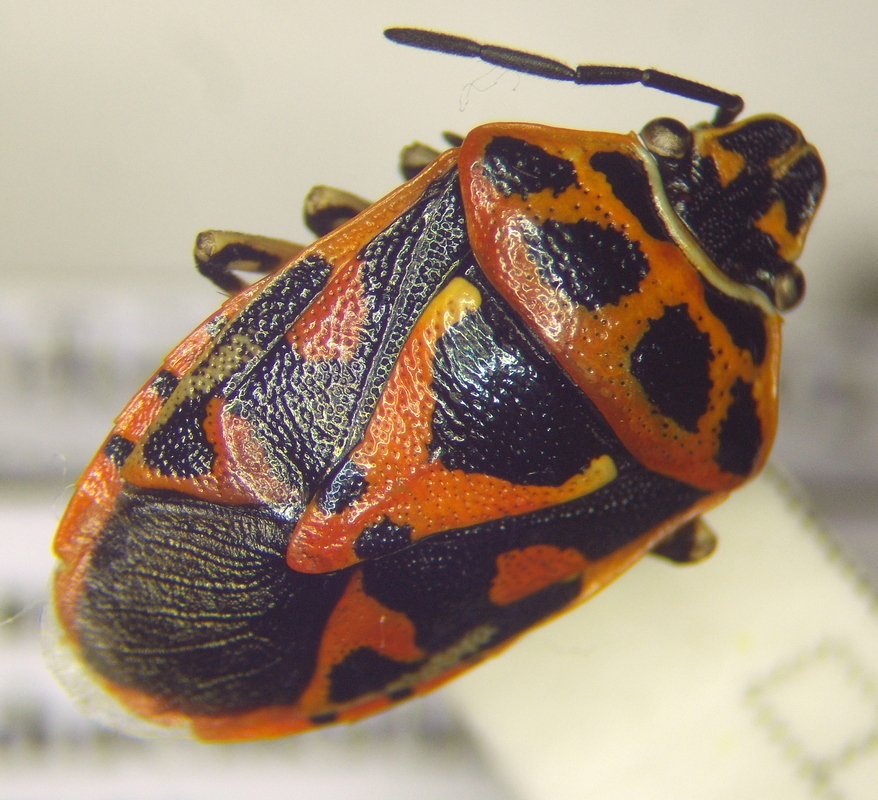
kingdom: Animalia
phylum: Arthropoda
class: Insecta
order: Hemiptera
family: Pentatomidae
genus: Eurydema
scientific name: Eurydema ornata
